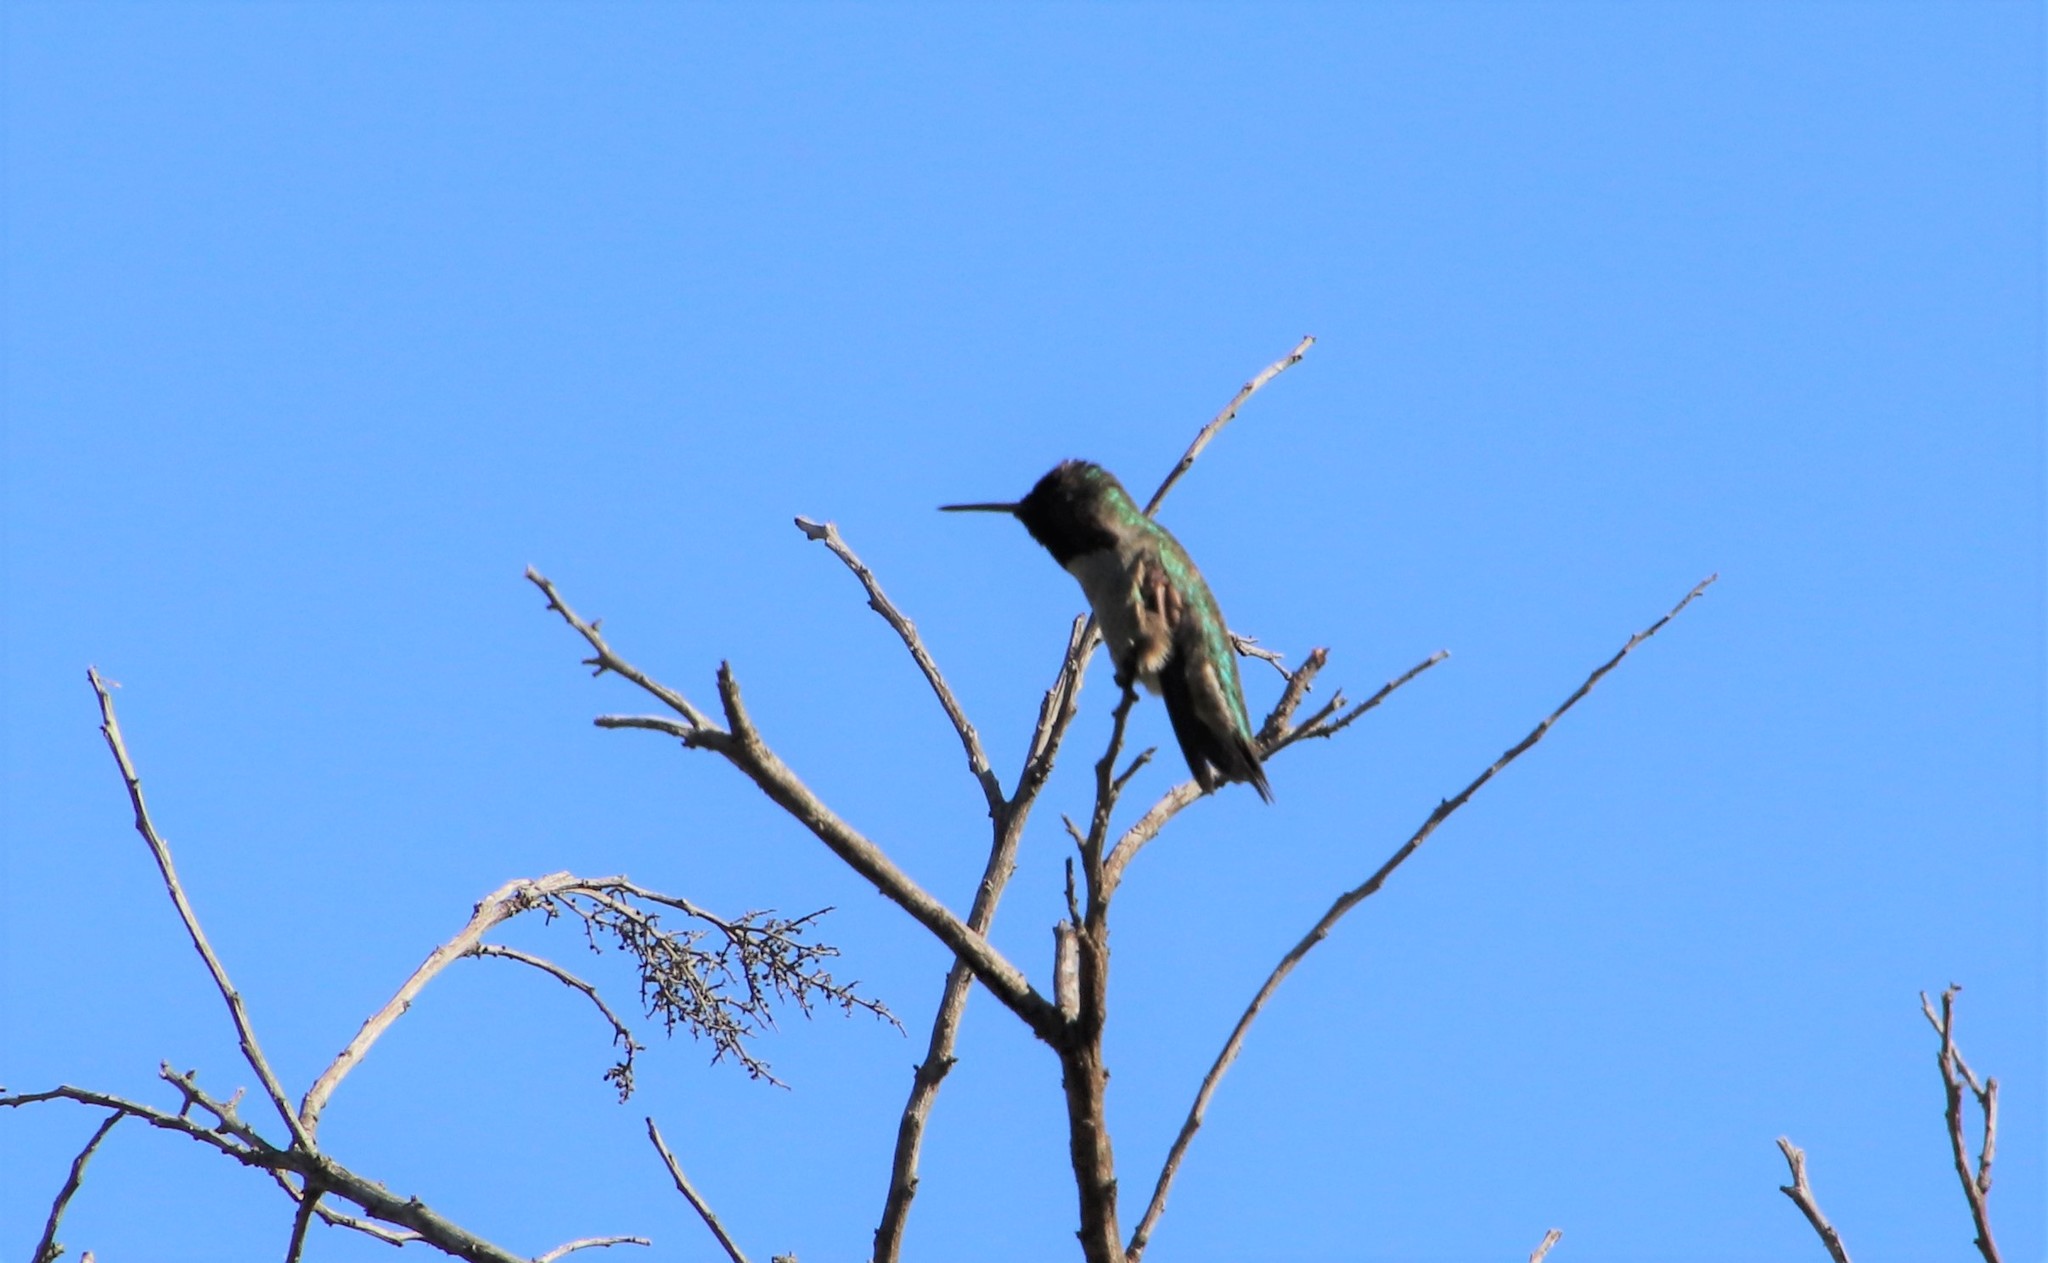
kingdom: Animalia
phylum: Chordata
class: Aves
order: Apodiformes
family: Trochilidae
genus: Calypte
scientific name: Calypte anna
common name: Anna's hummingbird
